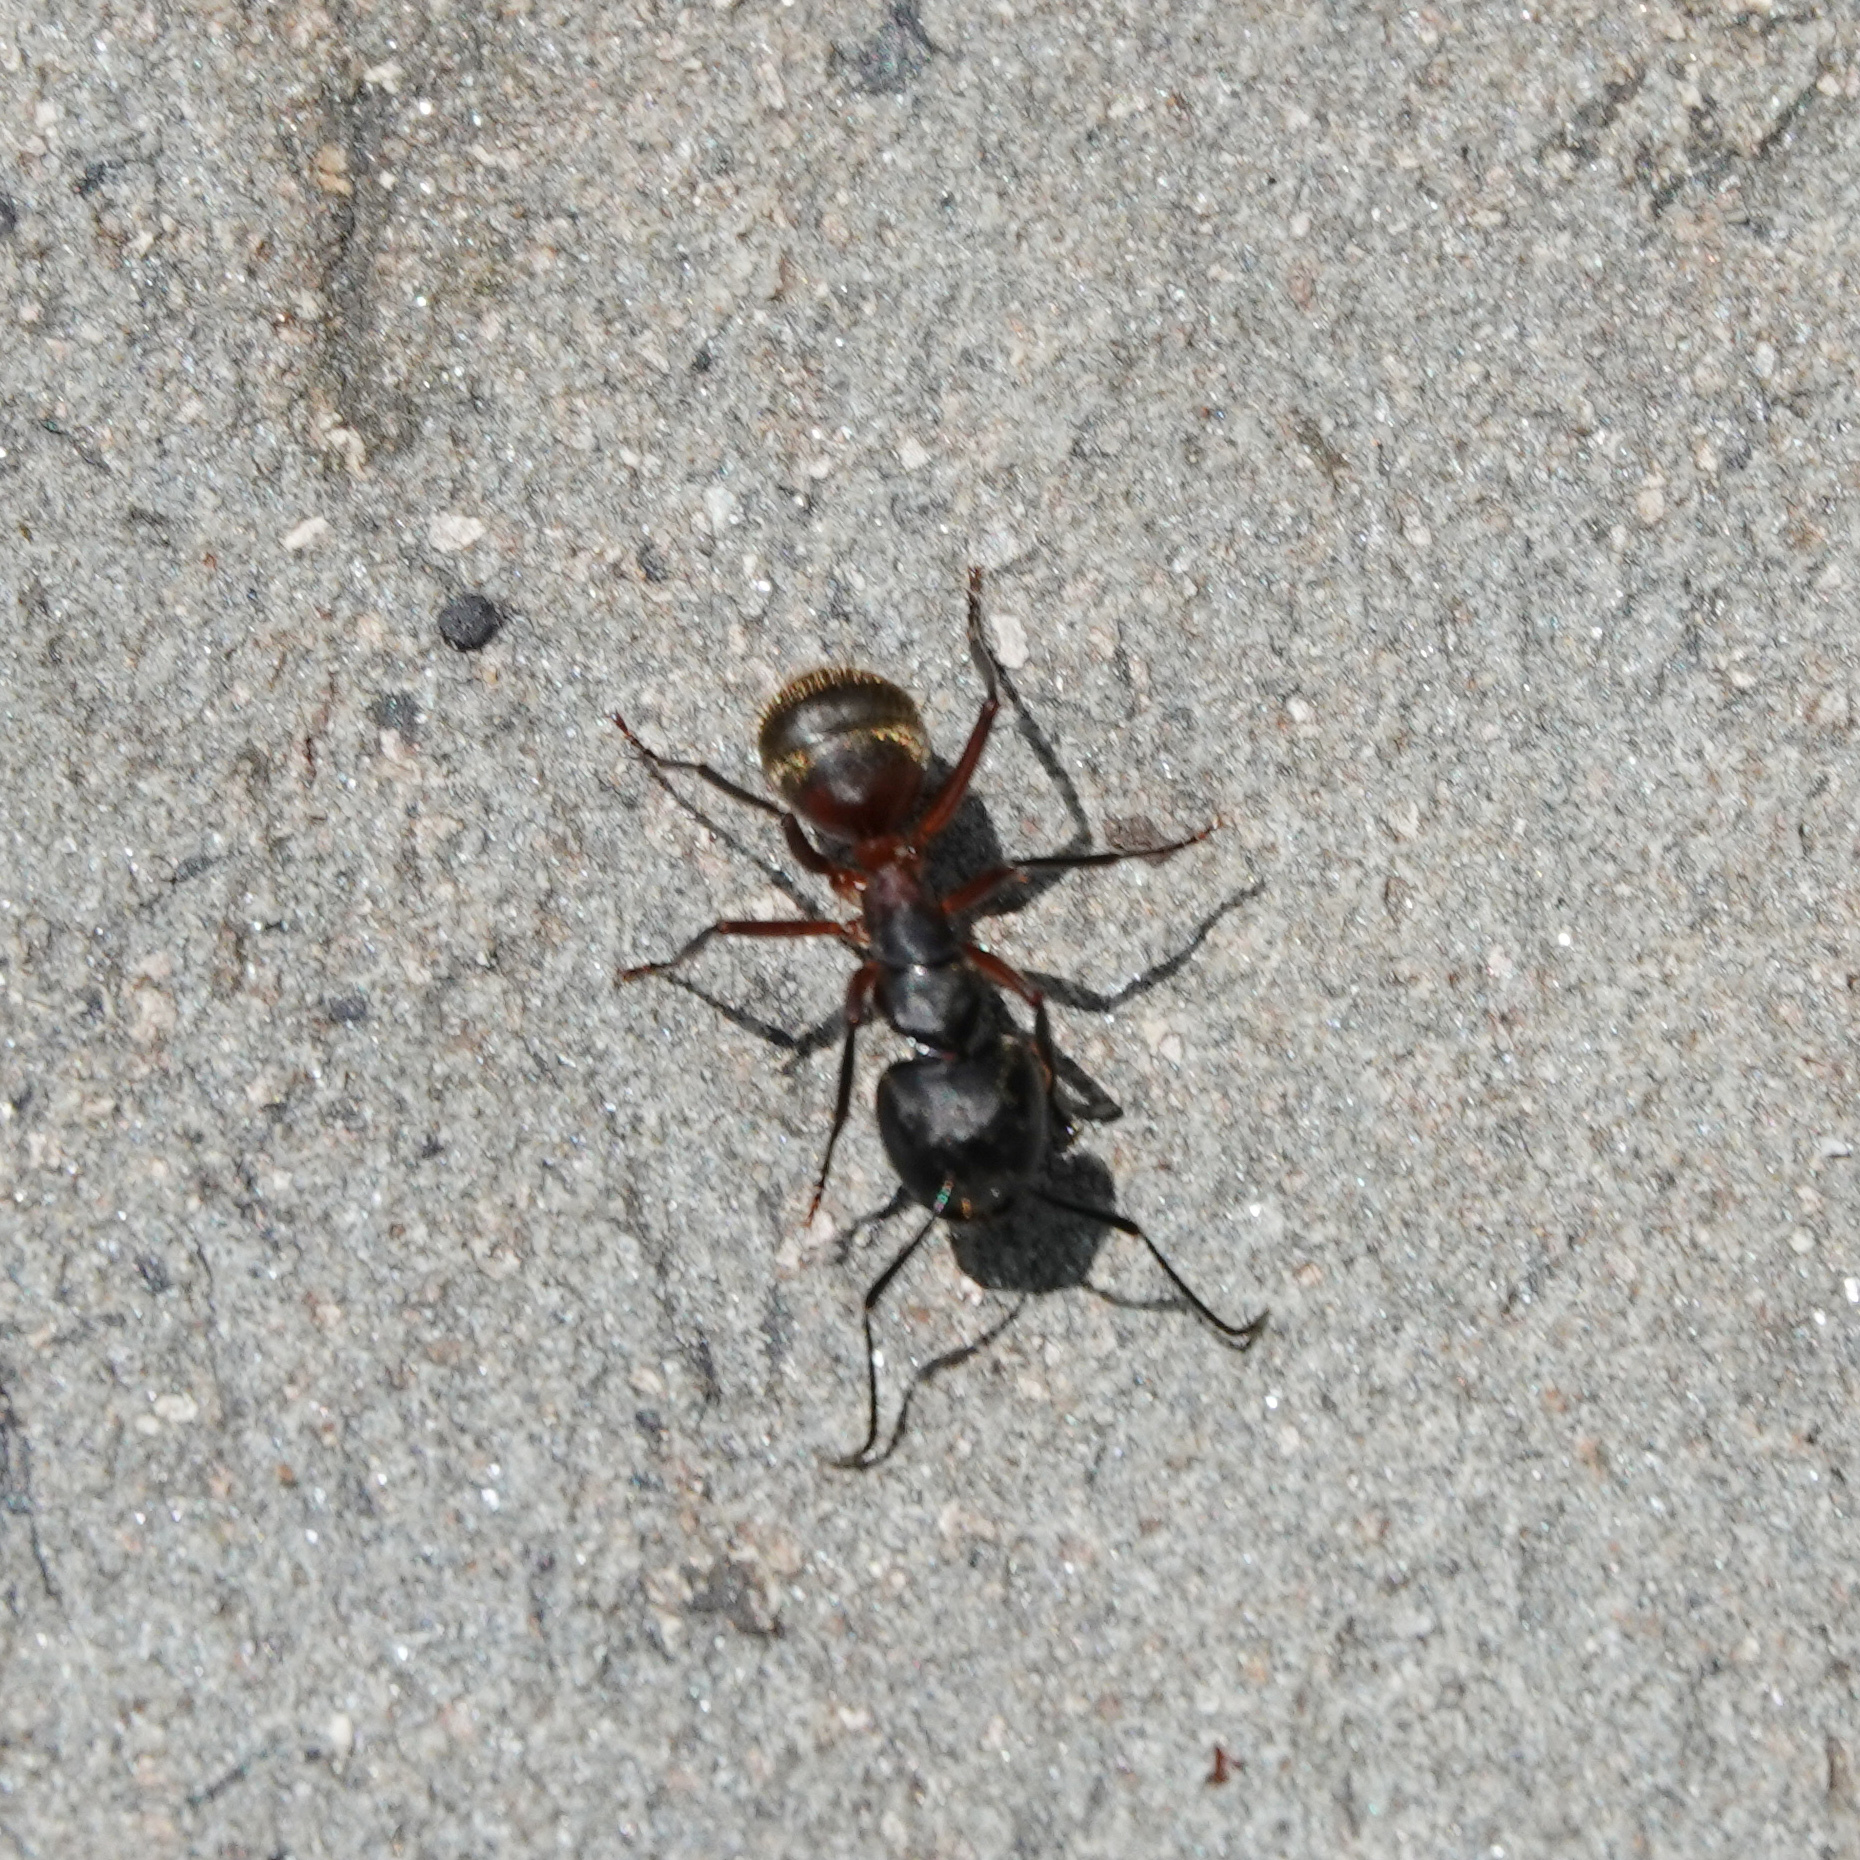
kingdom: Animalia
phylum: Arthropoda
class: Insecta
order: Hymenoptera
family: Formicidae
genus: Camponotus
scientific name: Camponotus chromaiodes
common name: Red carpenter ant
